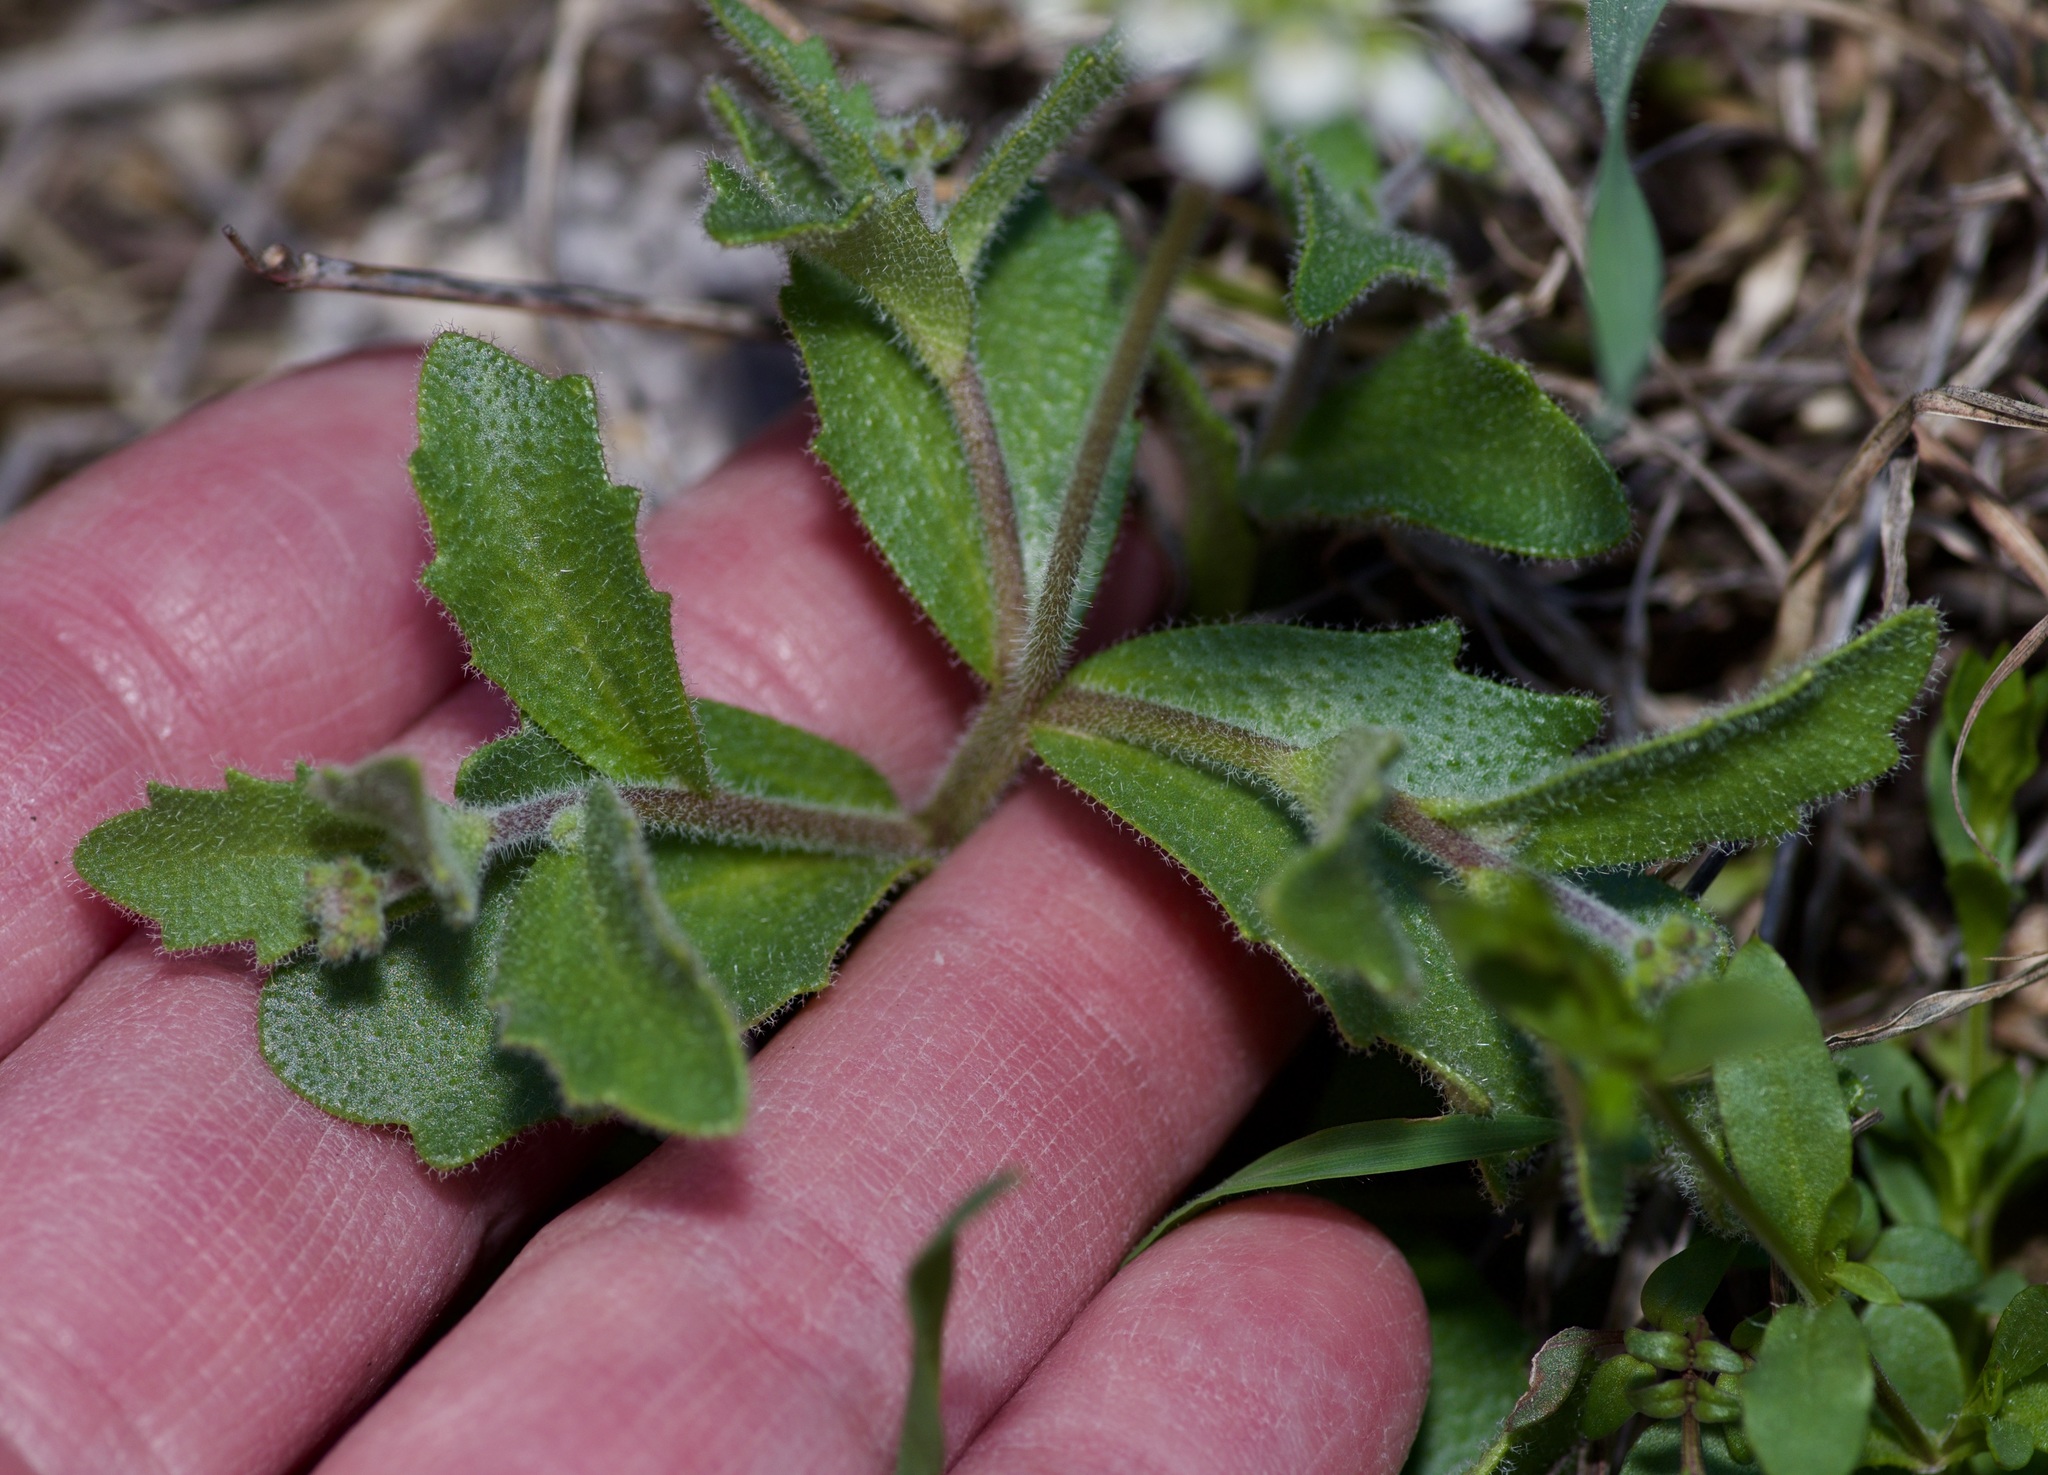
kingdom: Plantae
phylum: Tracheophyta
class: Magnoliopsida
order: Brassicales
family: Brassicaceae
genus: Tomostima
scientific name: Tomostima platycarpa
